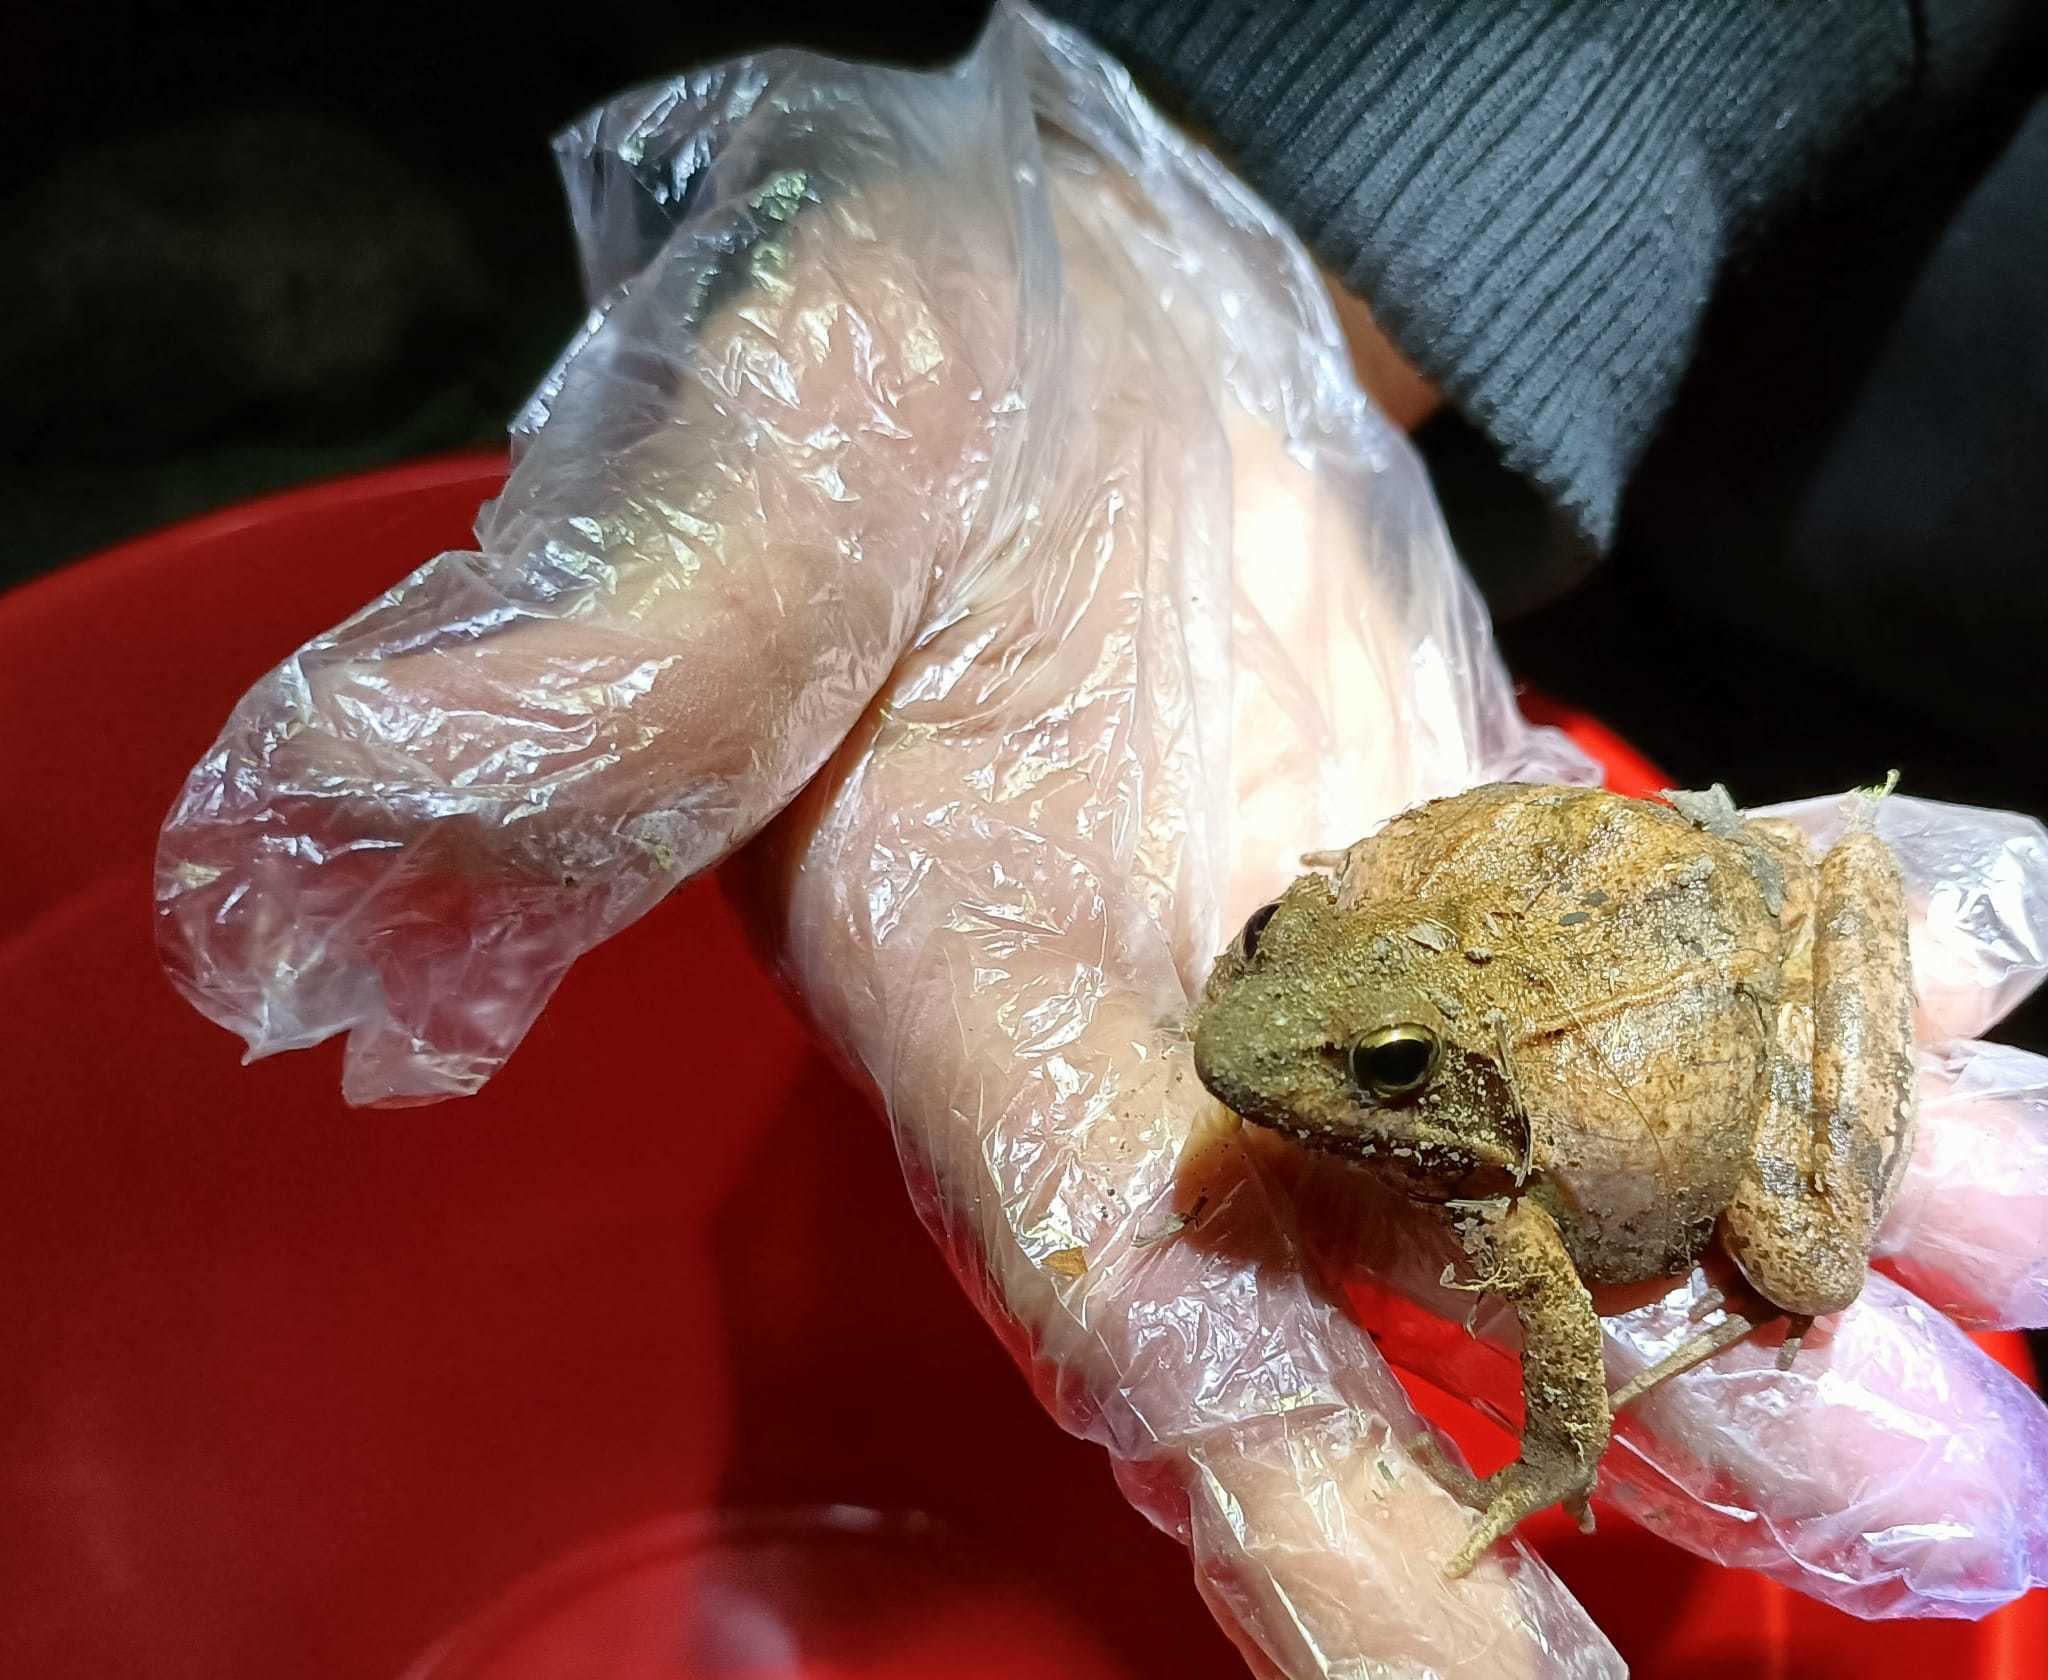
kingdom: Animalia
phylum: Chordata
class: Amphibia
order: Anura
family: Ranidae
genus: Rana
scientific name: Rana dalmatina
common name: Agile frog
